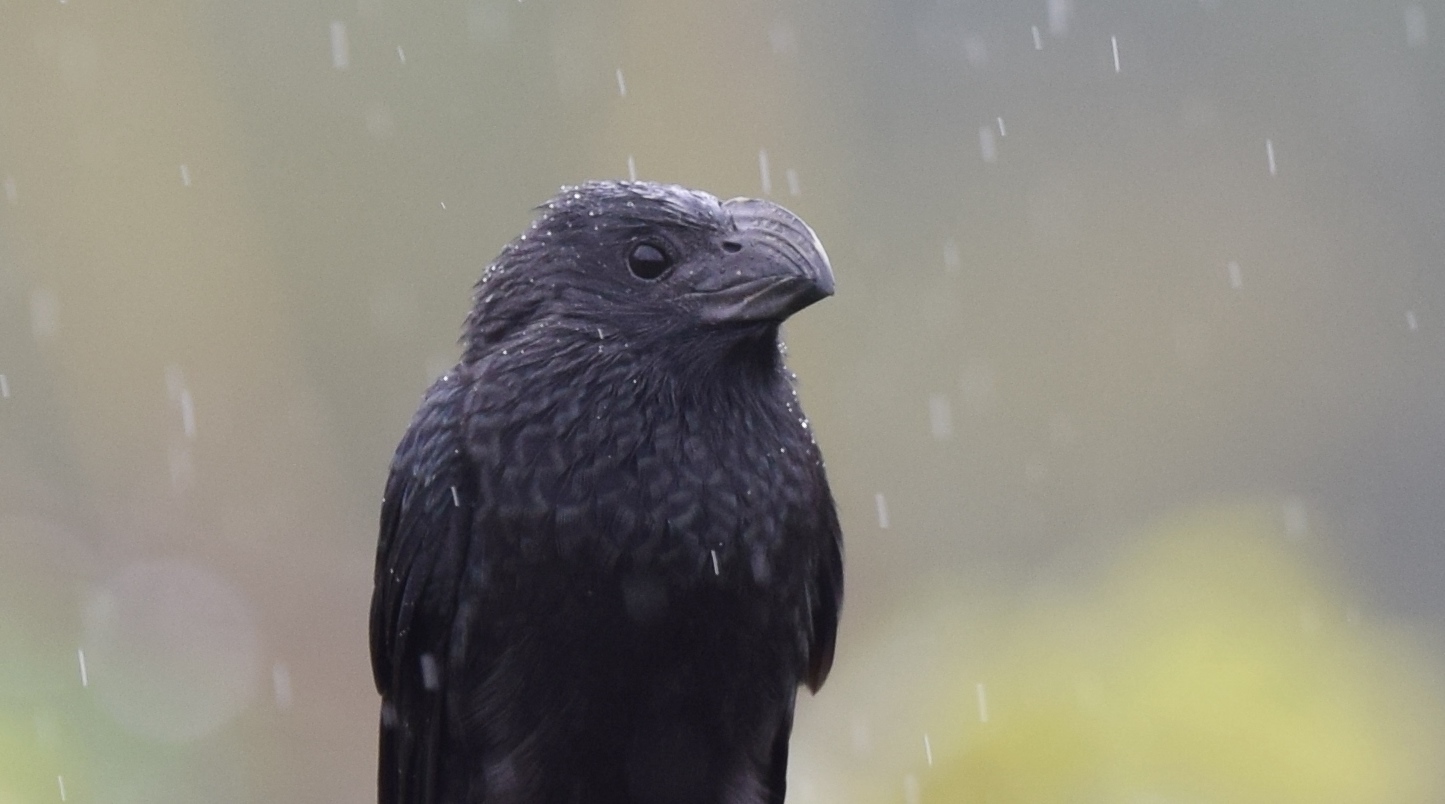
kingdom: Animalia
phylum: Chordata
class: Aves
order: Cuculiformes
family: Cuculidae
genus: Crotophaga
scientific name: Crotophaga sulcirostris
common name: Groove-billed ani
